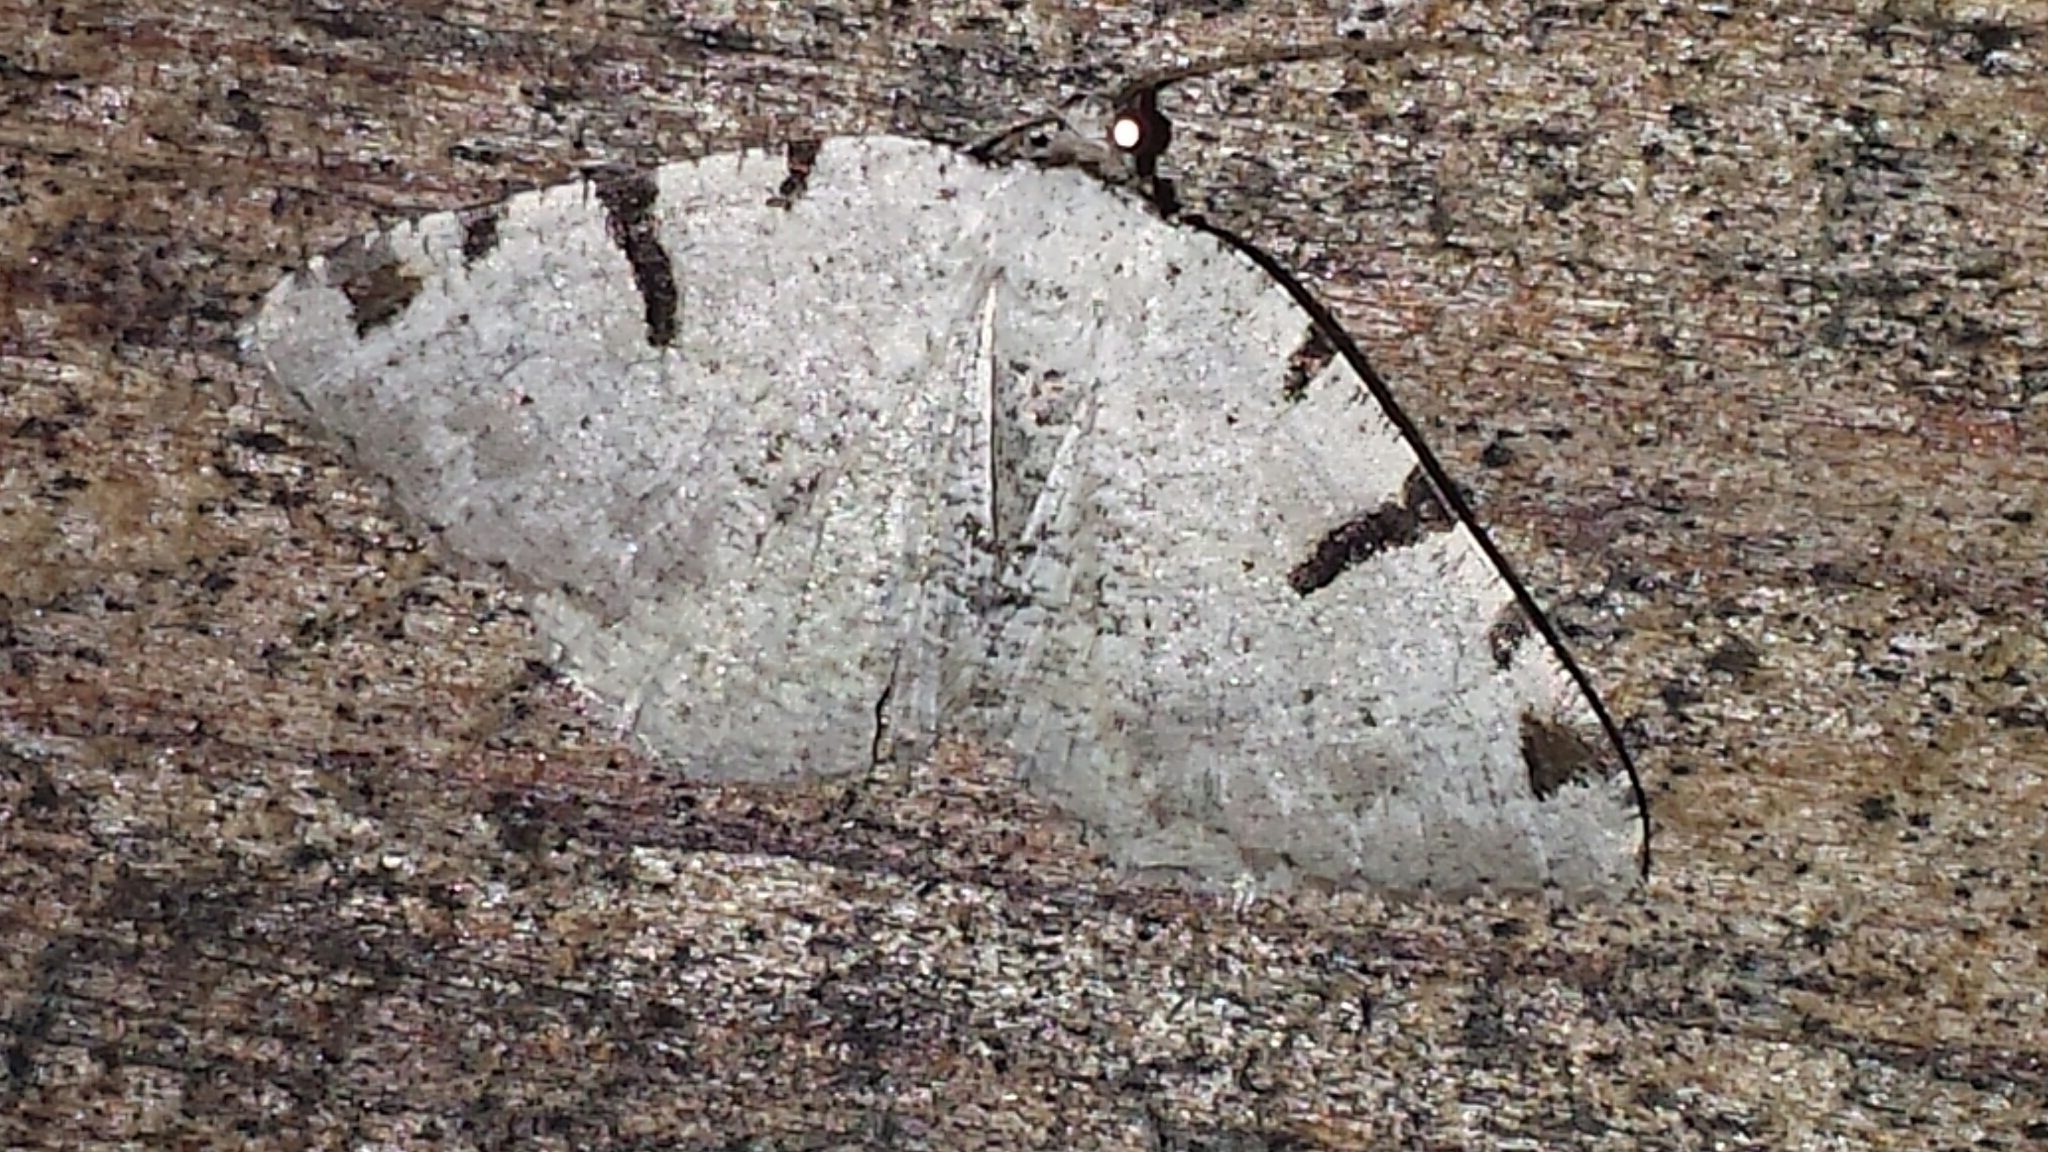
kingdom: Animalia
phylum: Arthropoda
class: Insecta
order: Lepidoptera
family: Geometridae
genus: Macaria
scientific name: Macaria subcessaria
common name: Barred angle
